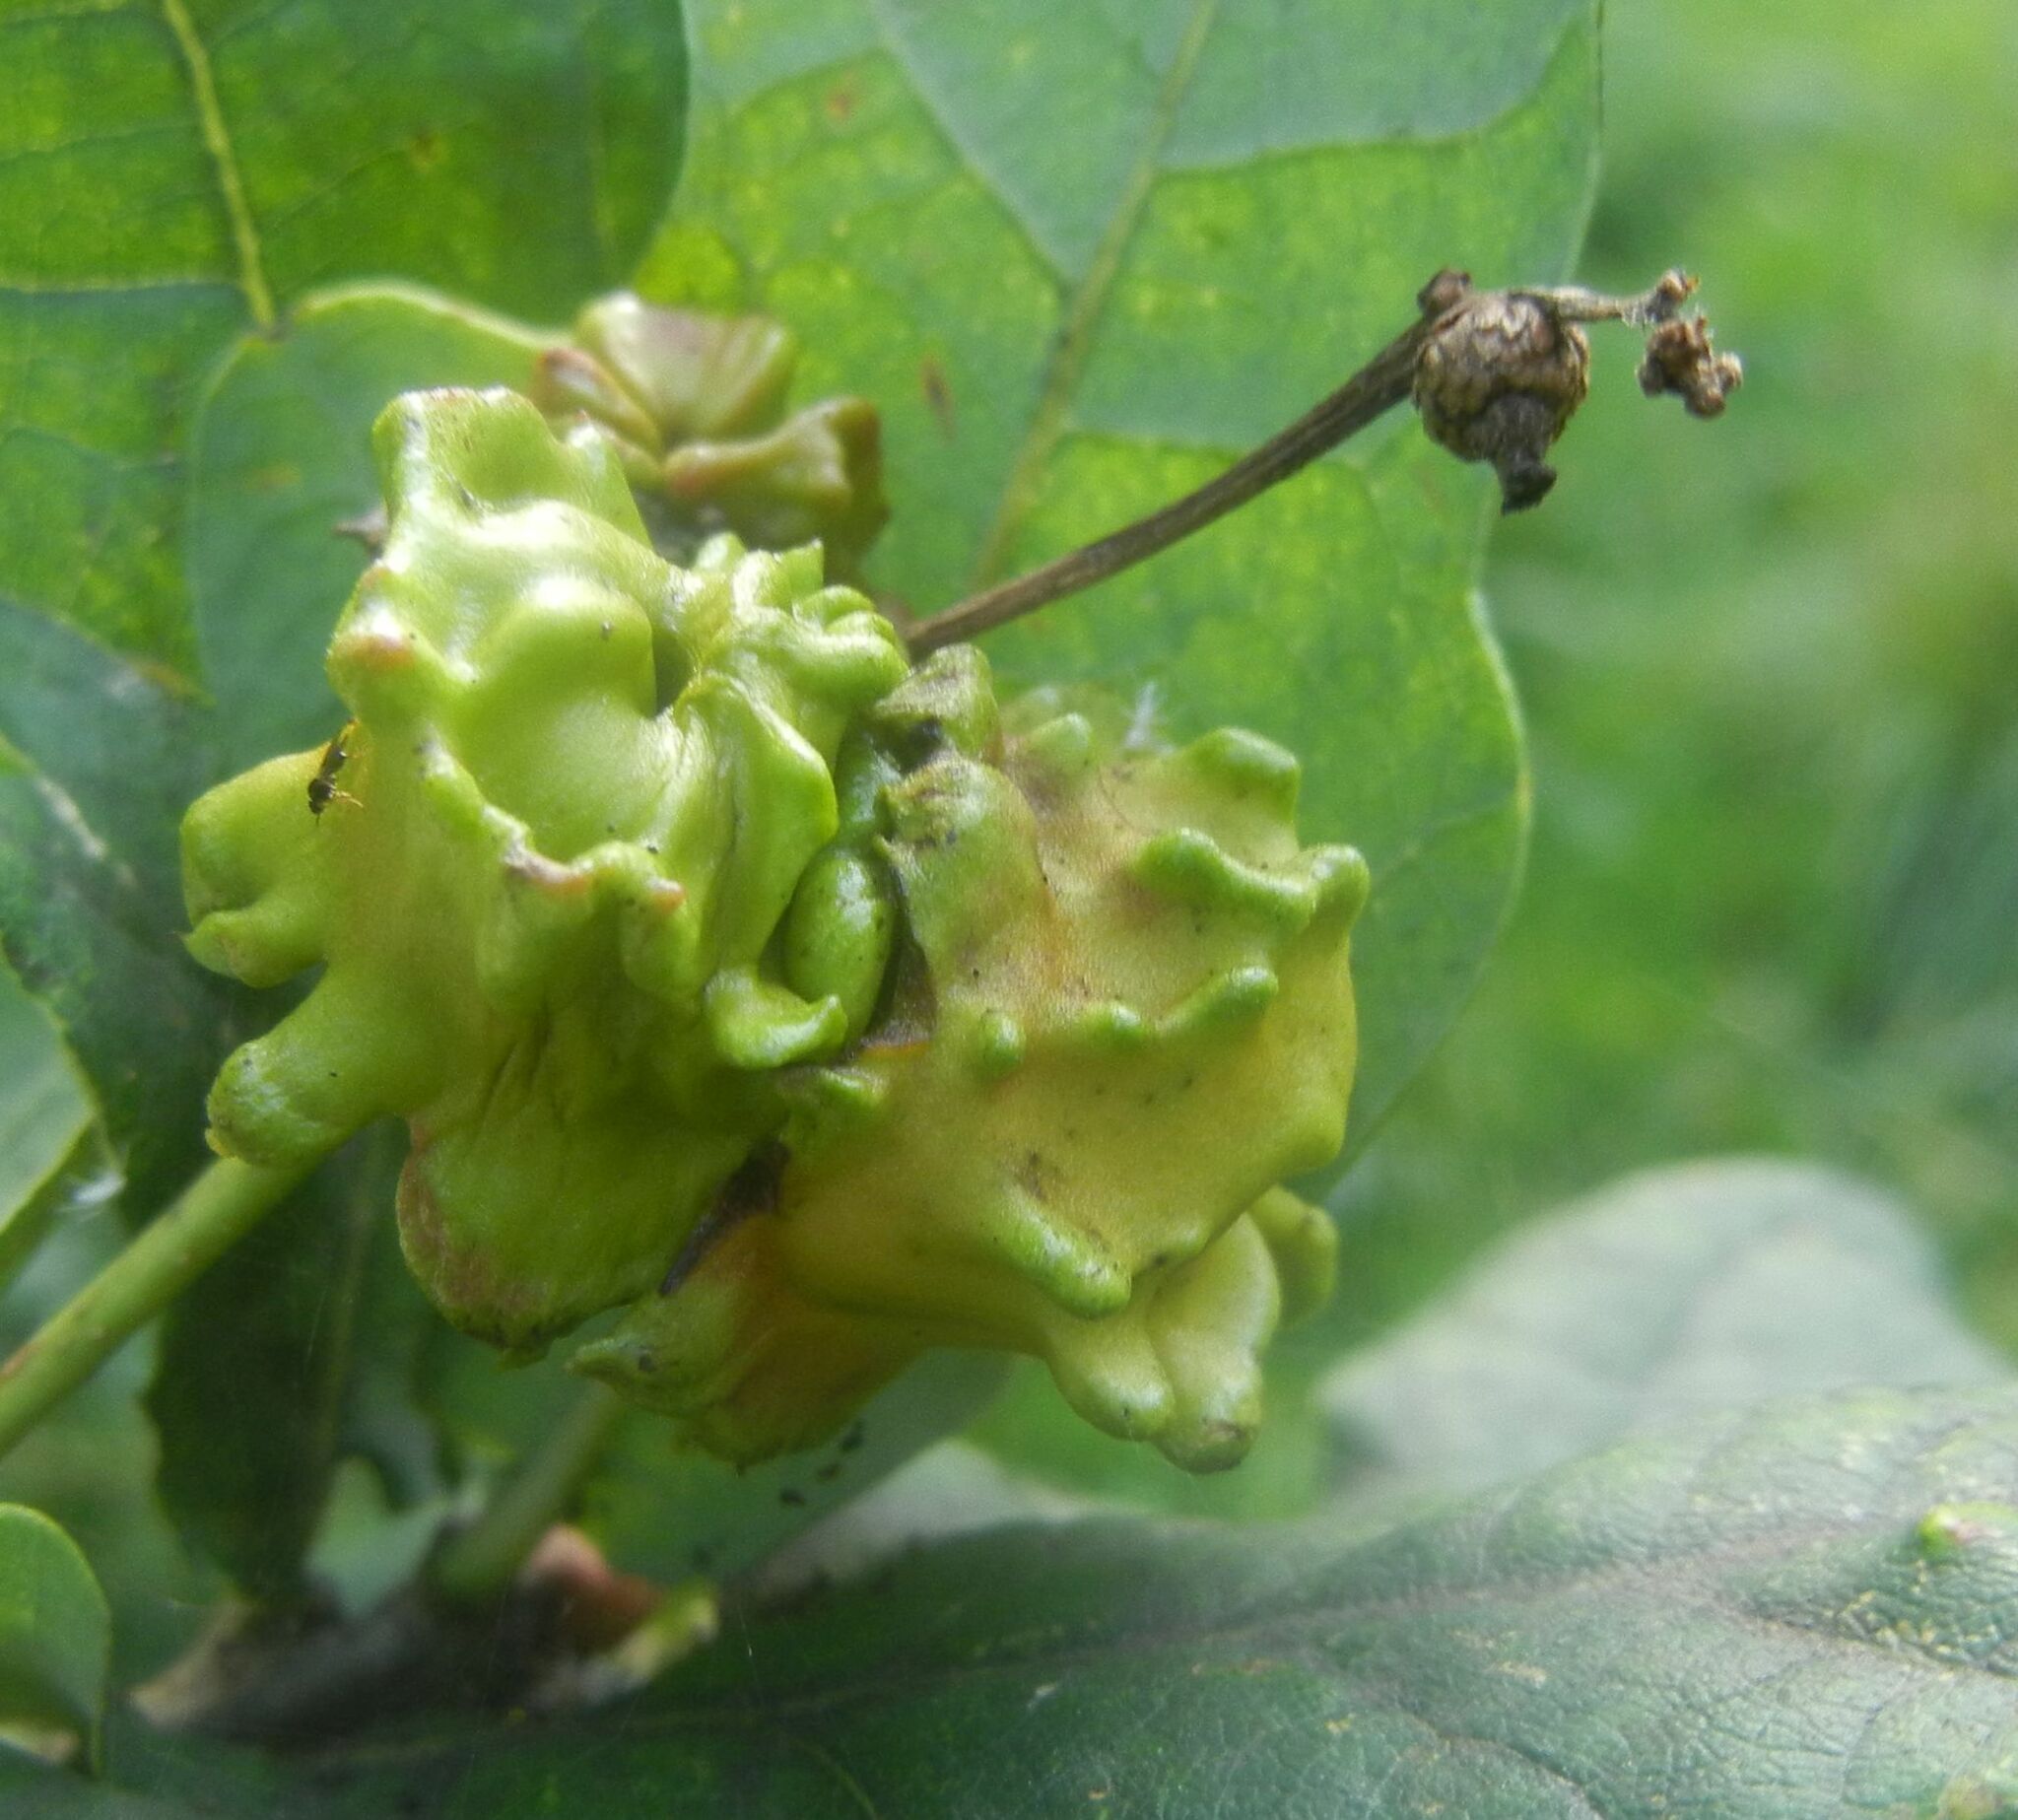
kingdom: Animalia
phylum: Arthropoda
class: Insecta
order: Hymenoptera
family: Cynipidae
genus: Andricus
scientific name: Andricus quercuscalicis
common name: Knopper gall
